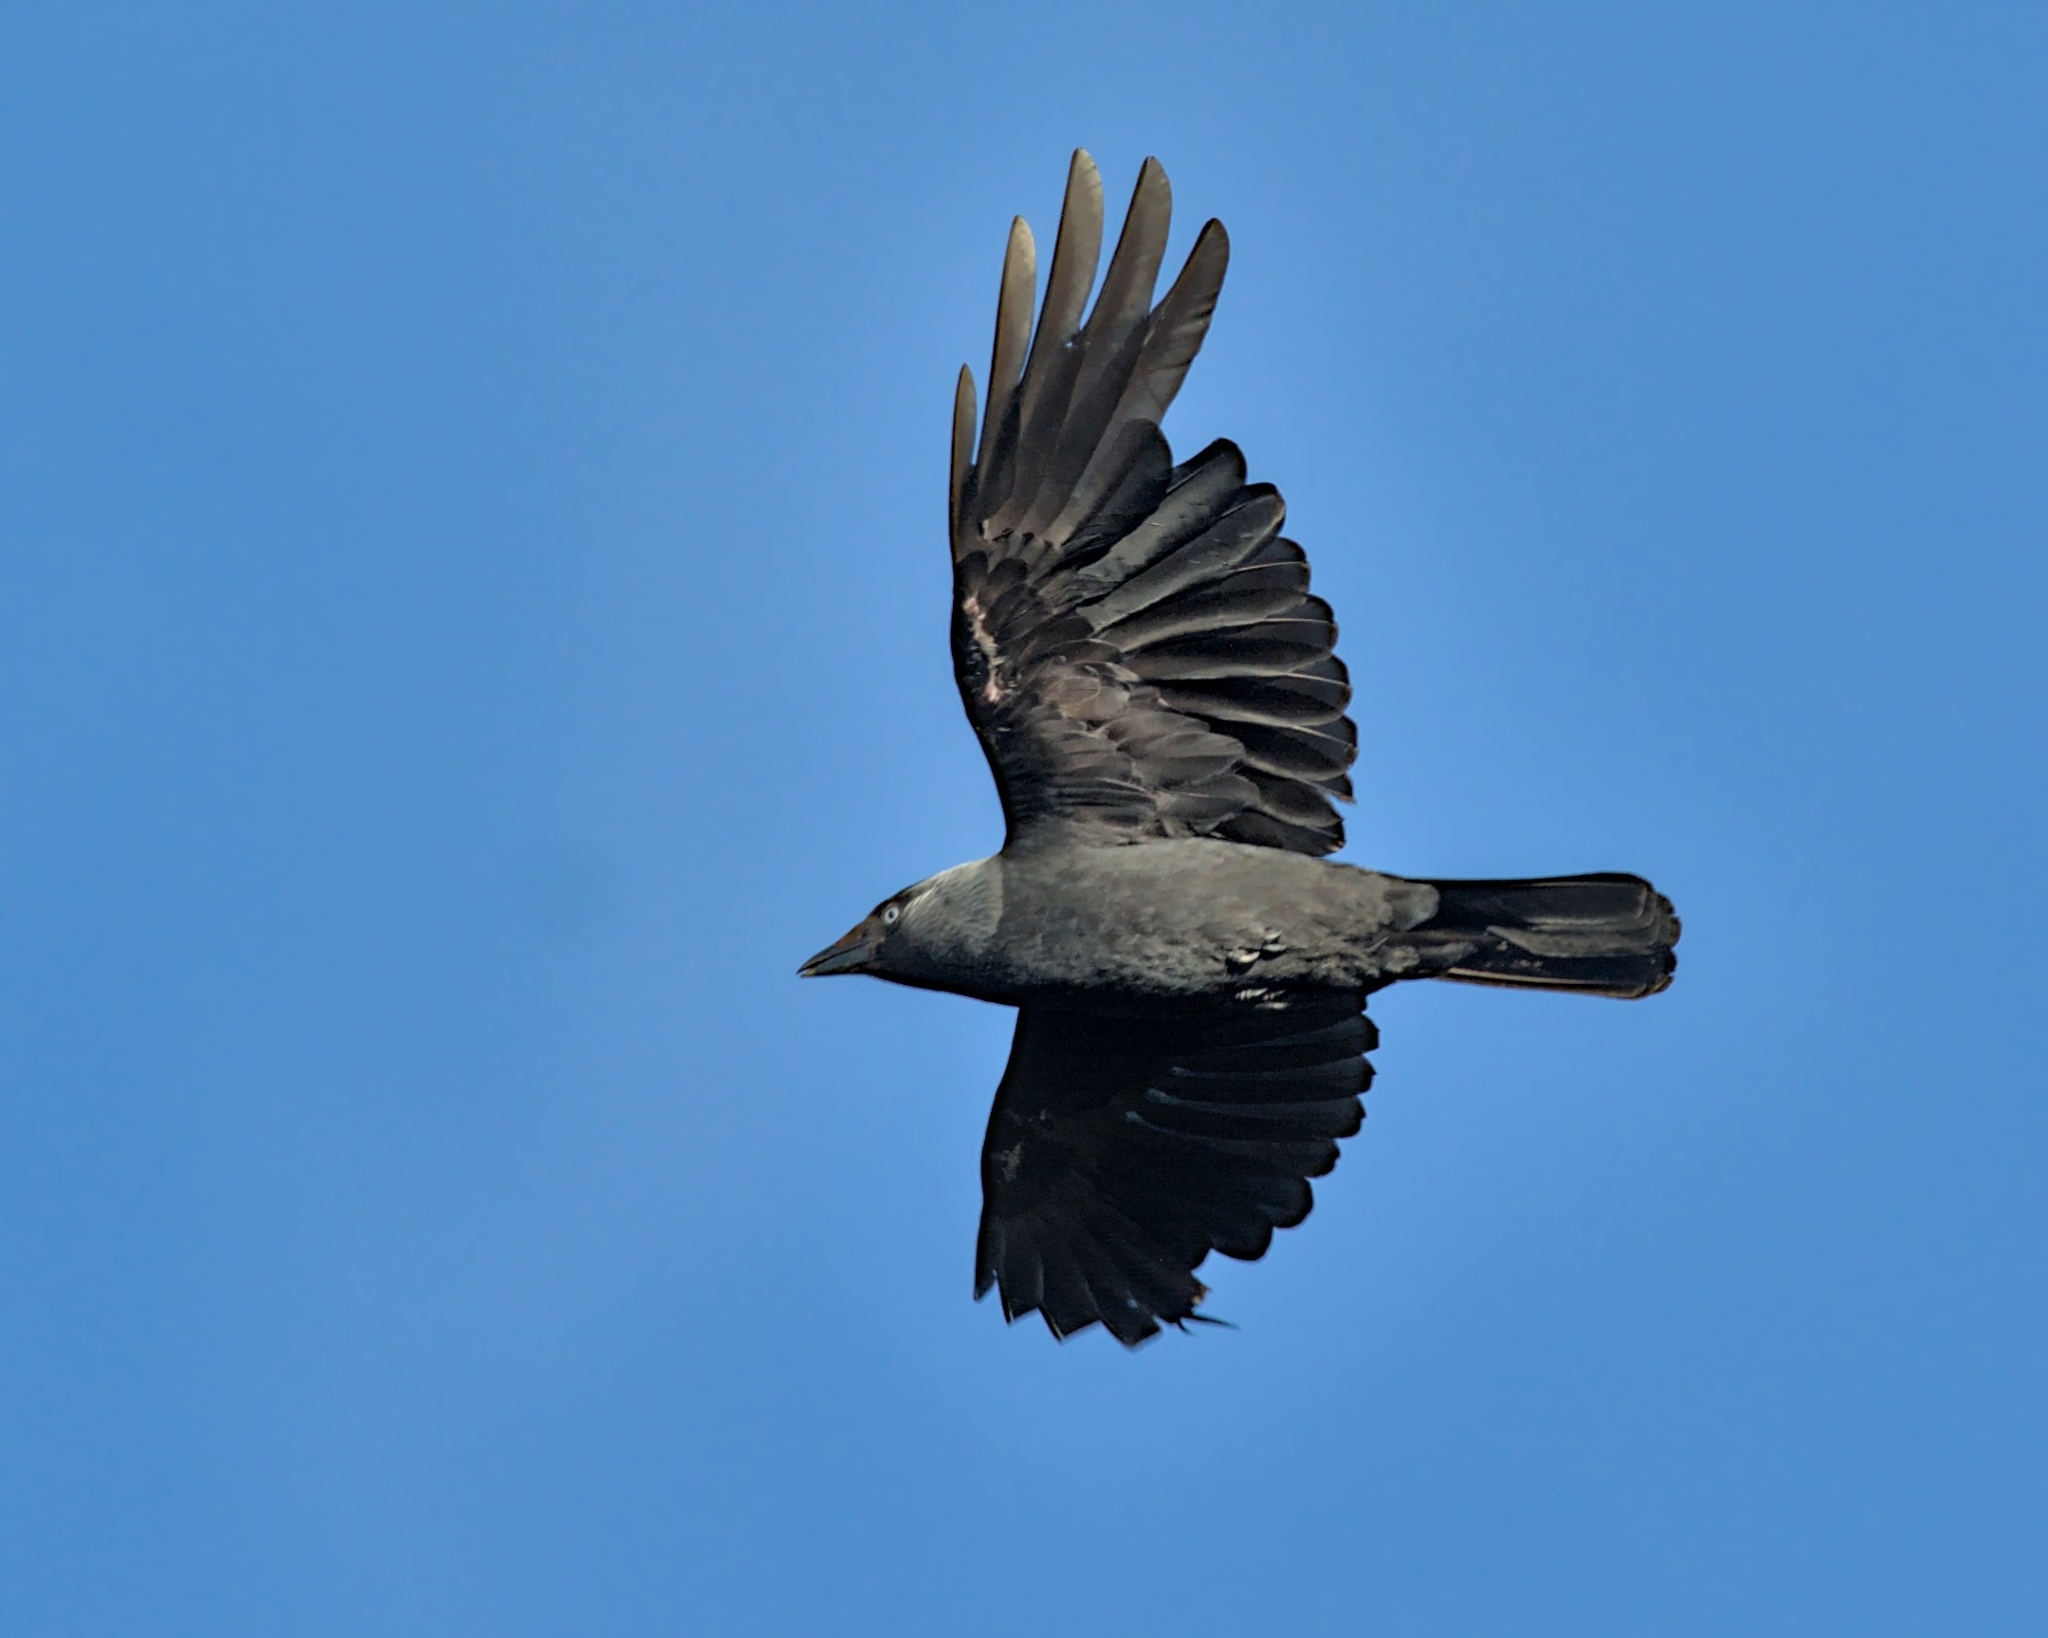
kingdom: Animalia
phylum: Chordata
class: Aves
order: Passeriformes
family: Corvidae
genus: Coloeus
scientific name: Coloeus monedula
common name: Western jackdaw
